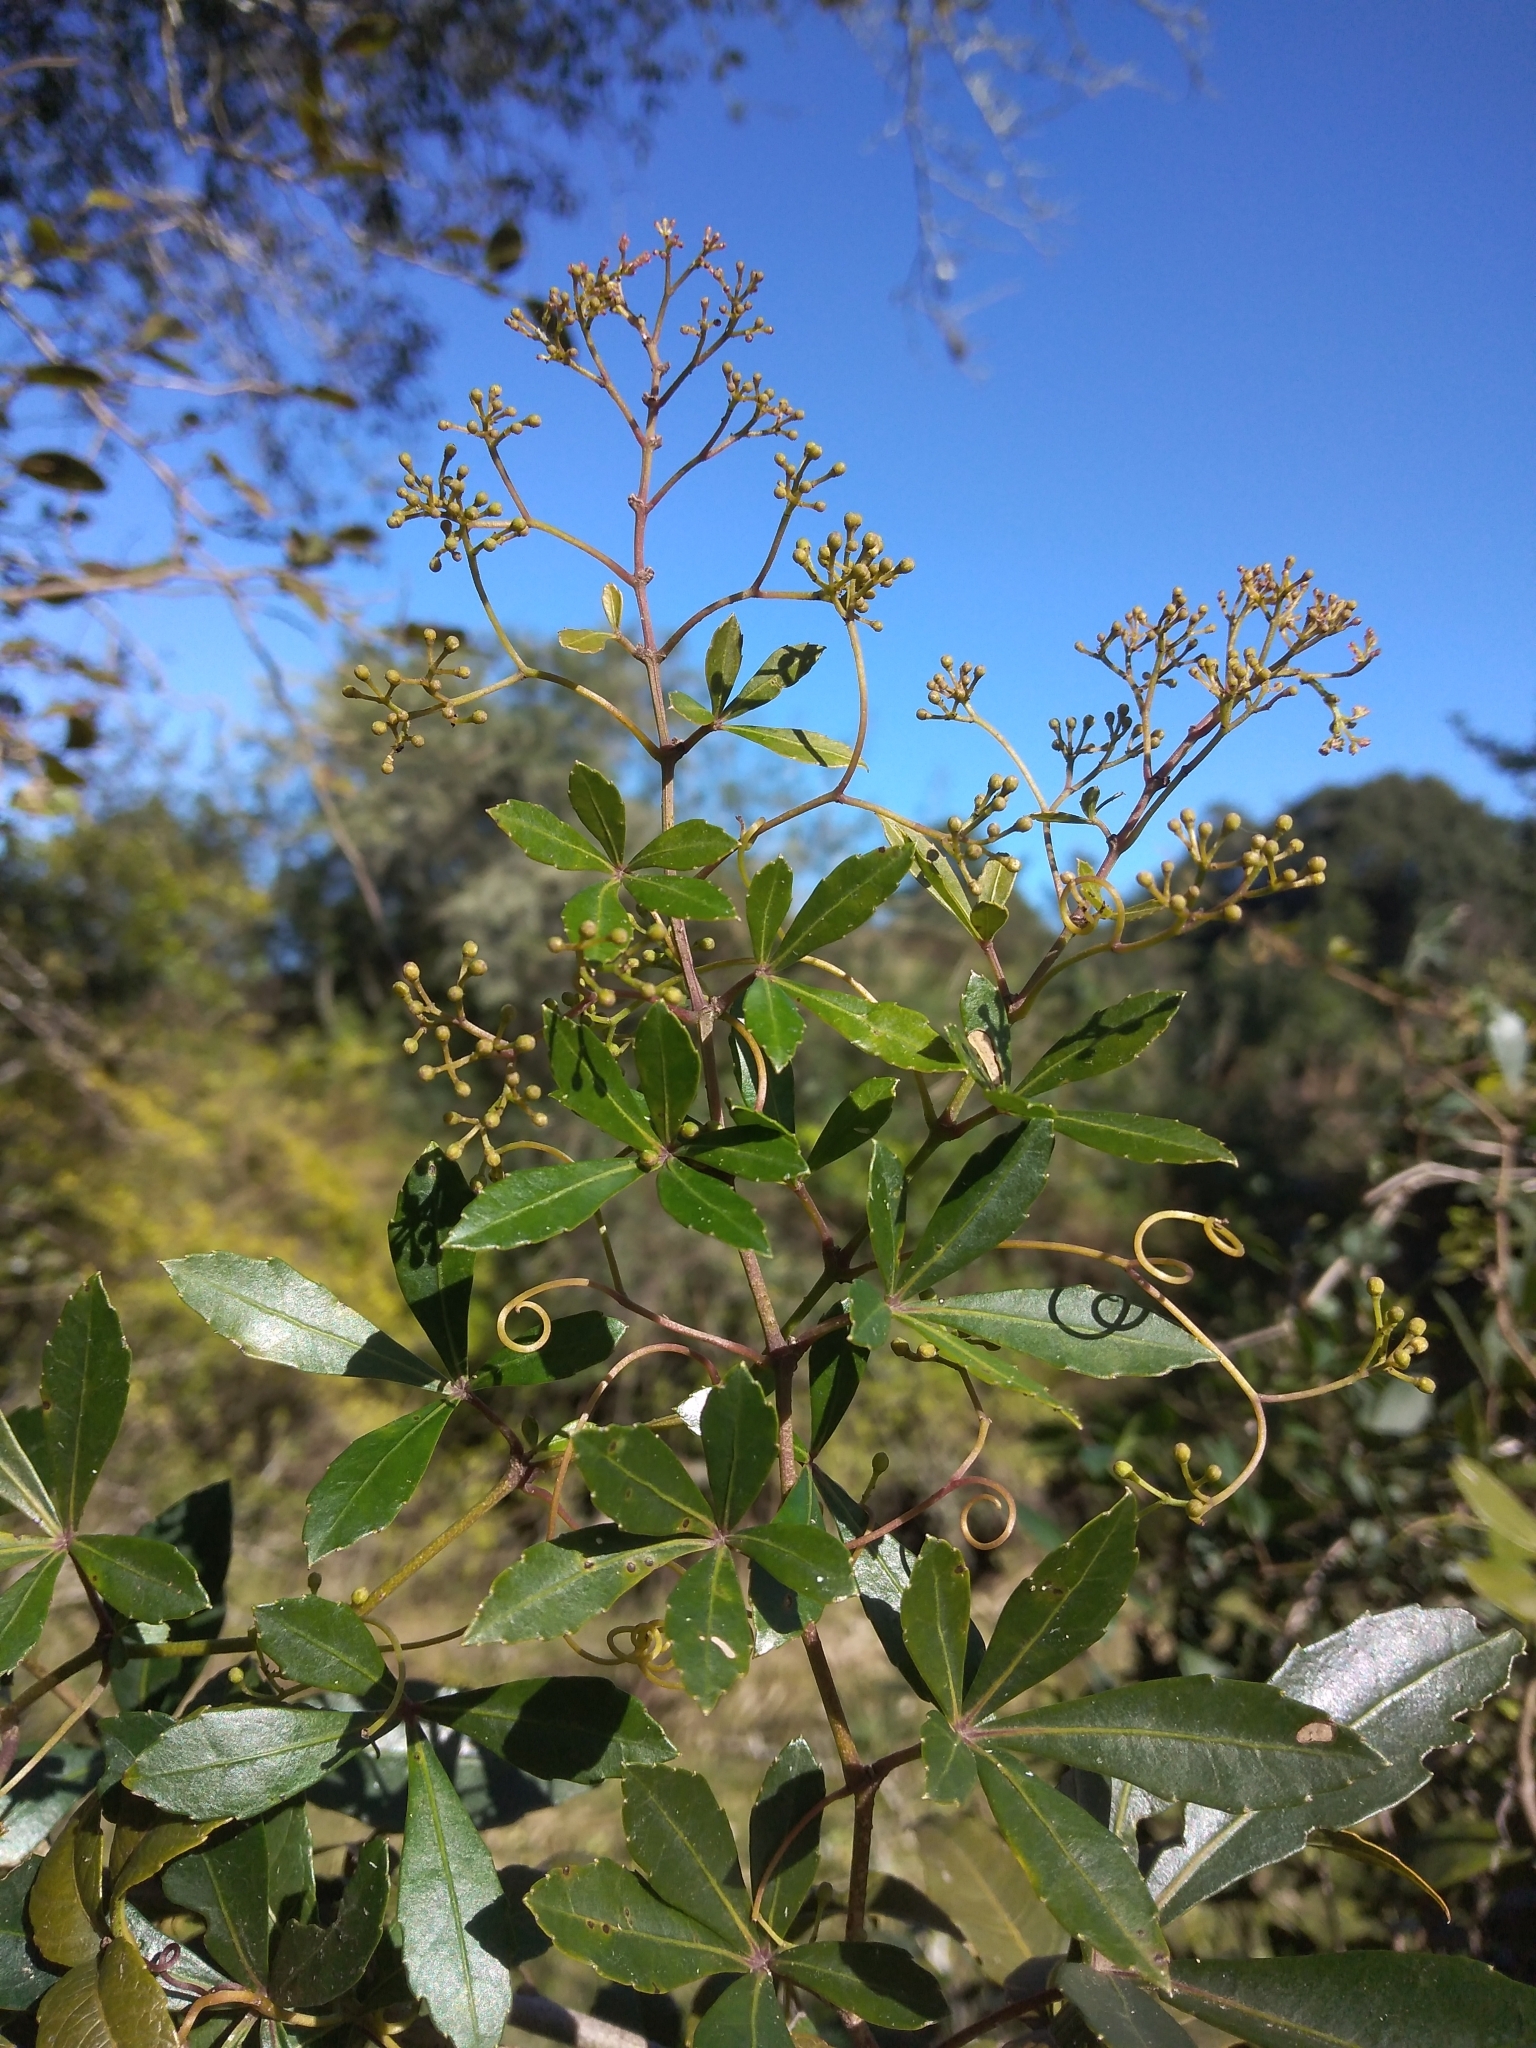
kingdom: Plantae
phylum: Tracheophyta
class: Magnoliopsida
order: Vitales
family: Vitaceae
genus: Clematicissus
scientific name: Clematicissus striata
